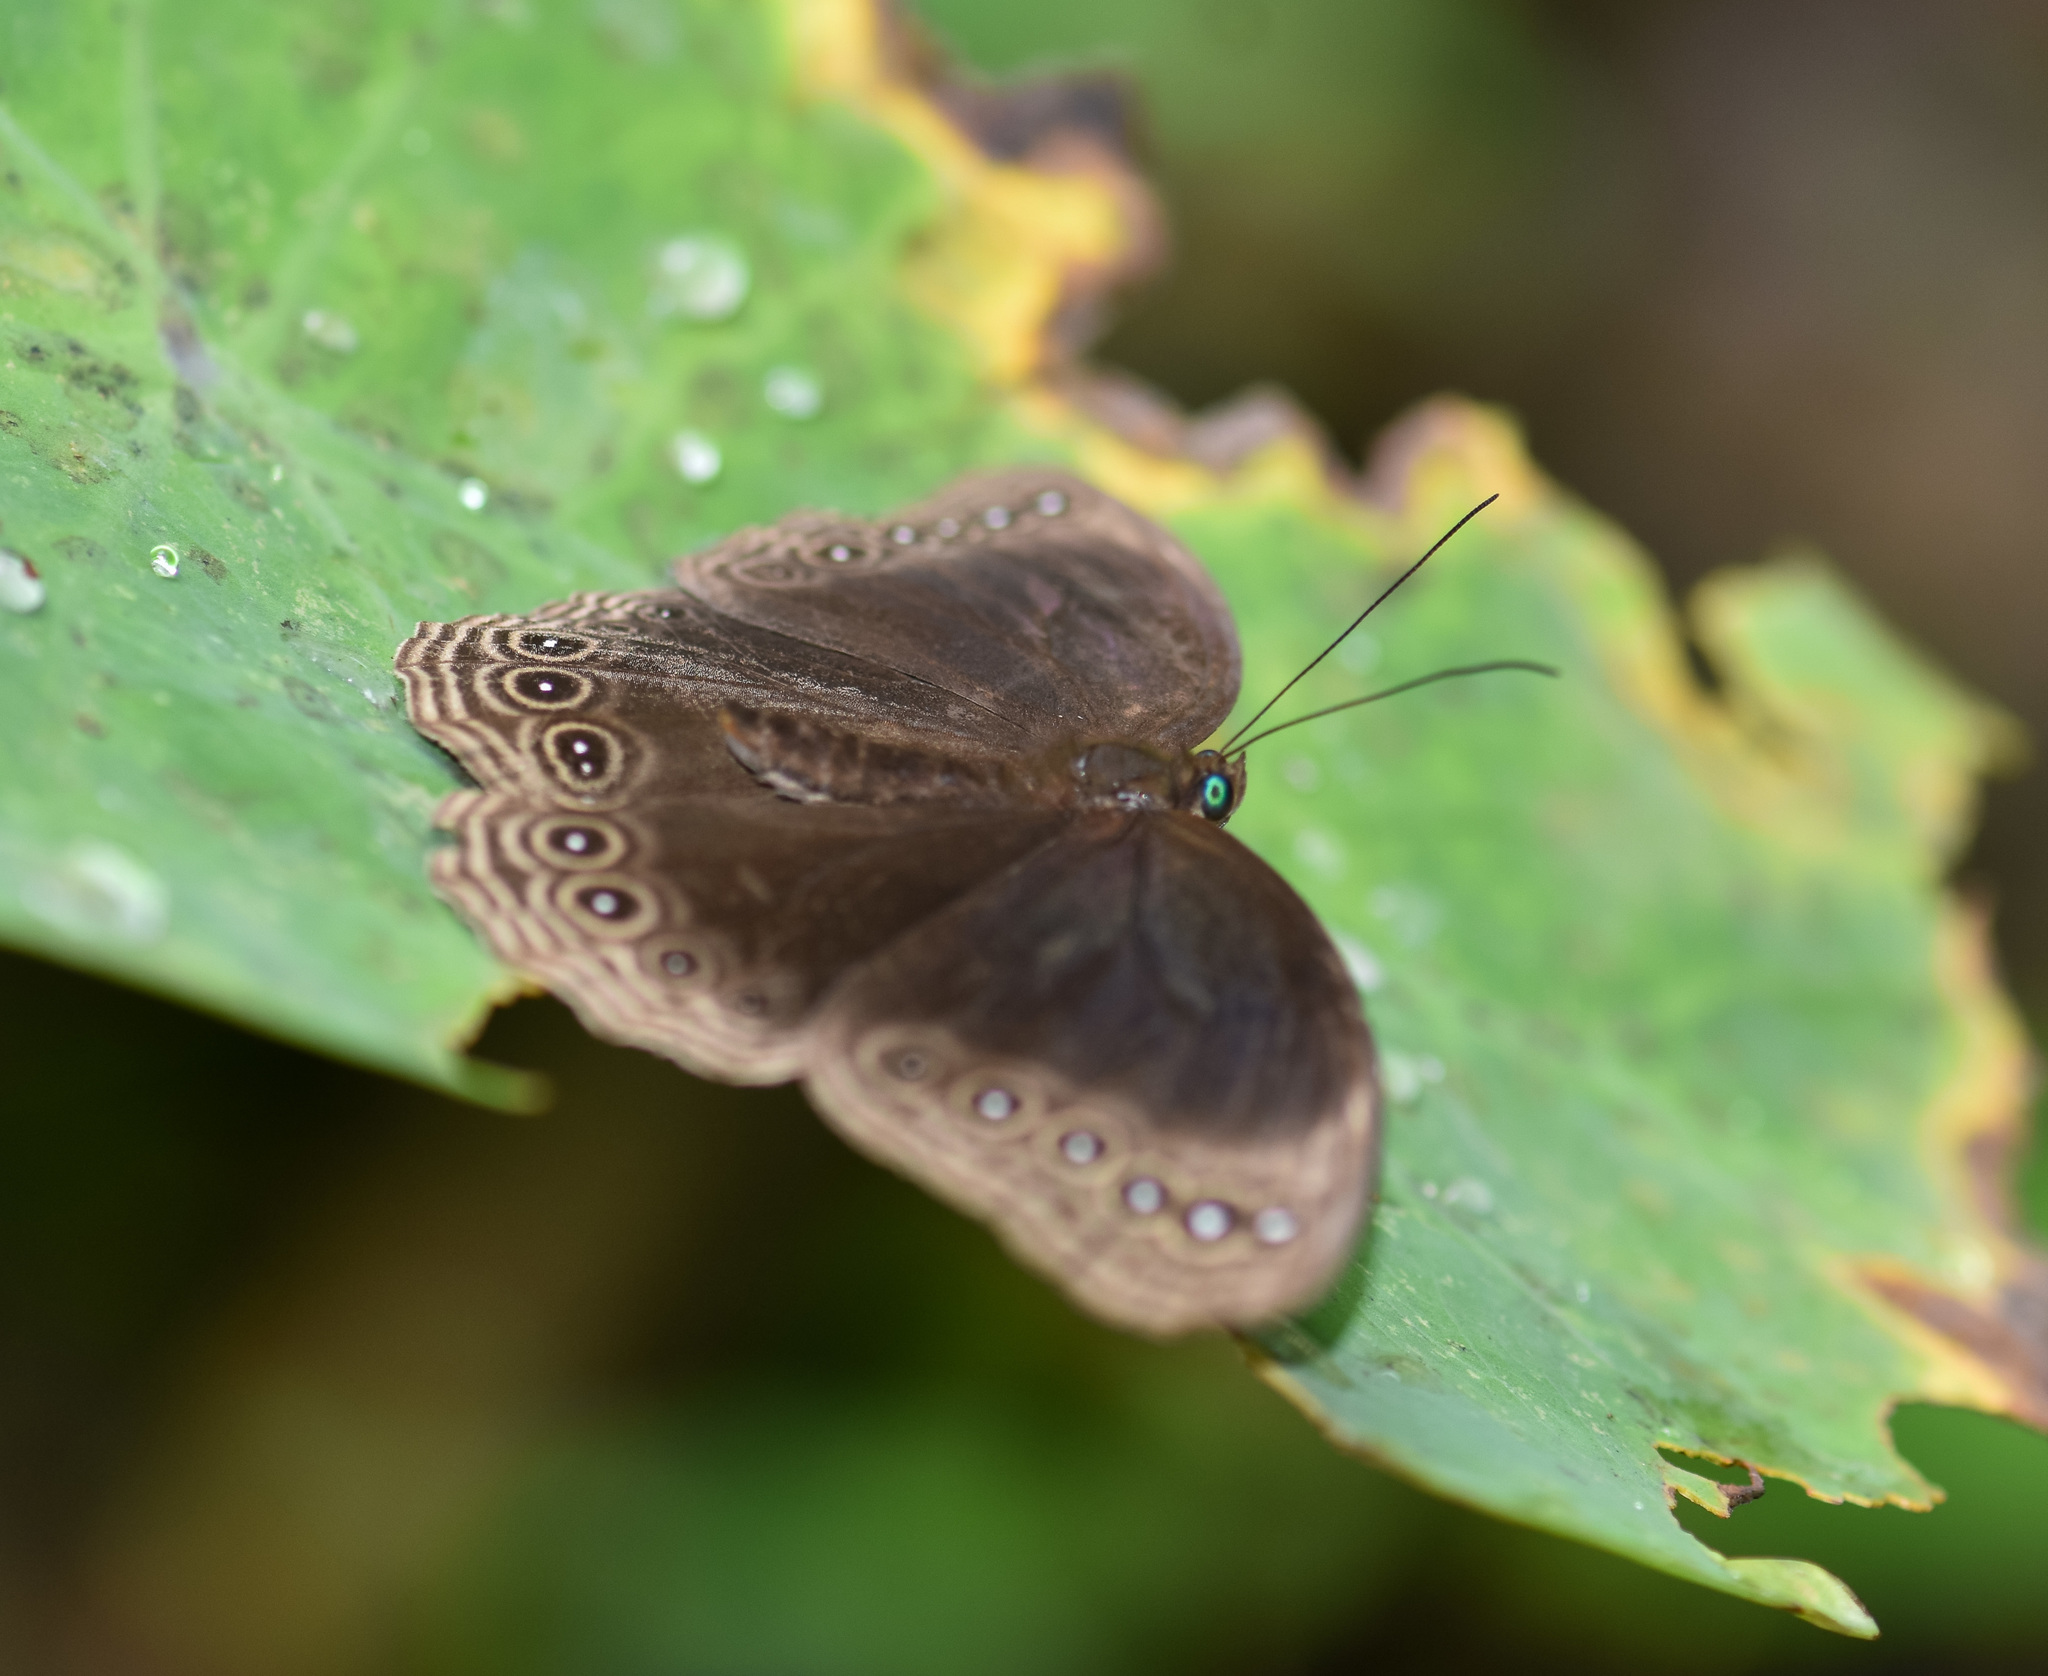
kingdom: Animalia
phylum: Arthropoda
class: Insecta
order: Lepidoptera
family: Nymphalidae
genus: Ethope
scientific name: Ethope himachala
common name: Dusky diadem
